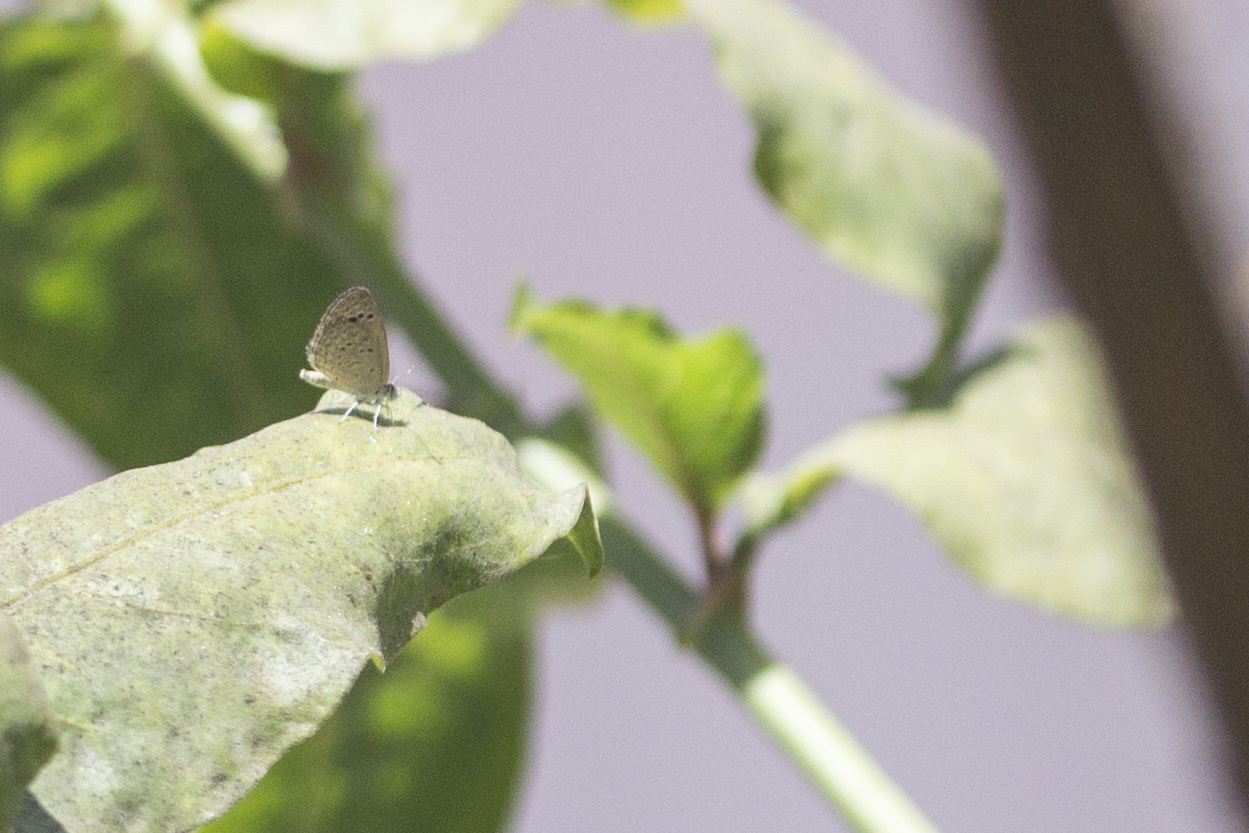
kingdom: Animalia
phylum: Arthropoda
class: Insecta
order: Lepidoptera
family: Lycaenidae
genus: Zizina
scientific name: Zizina otis
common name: Lesser grass blue
